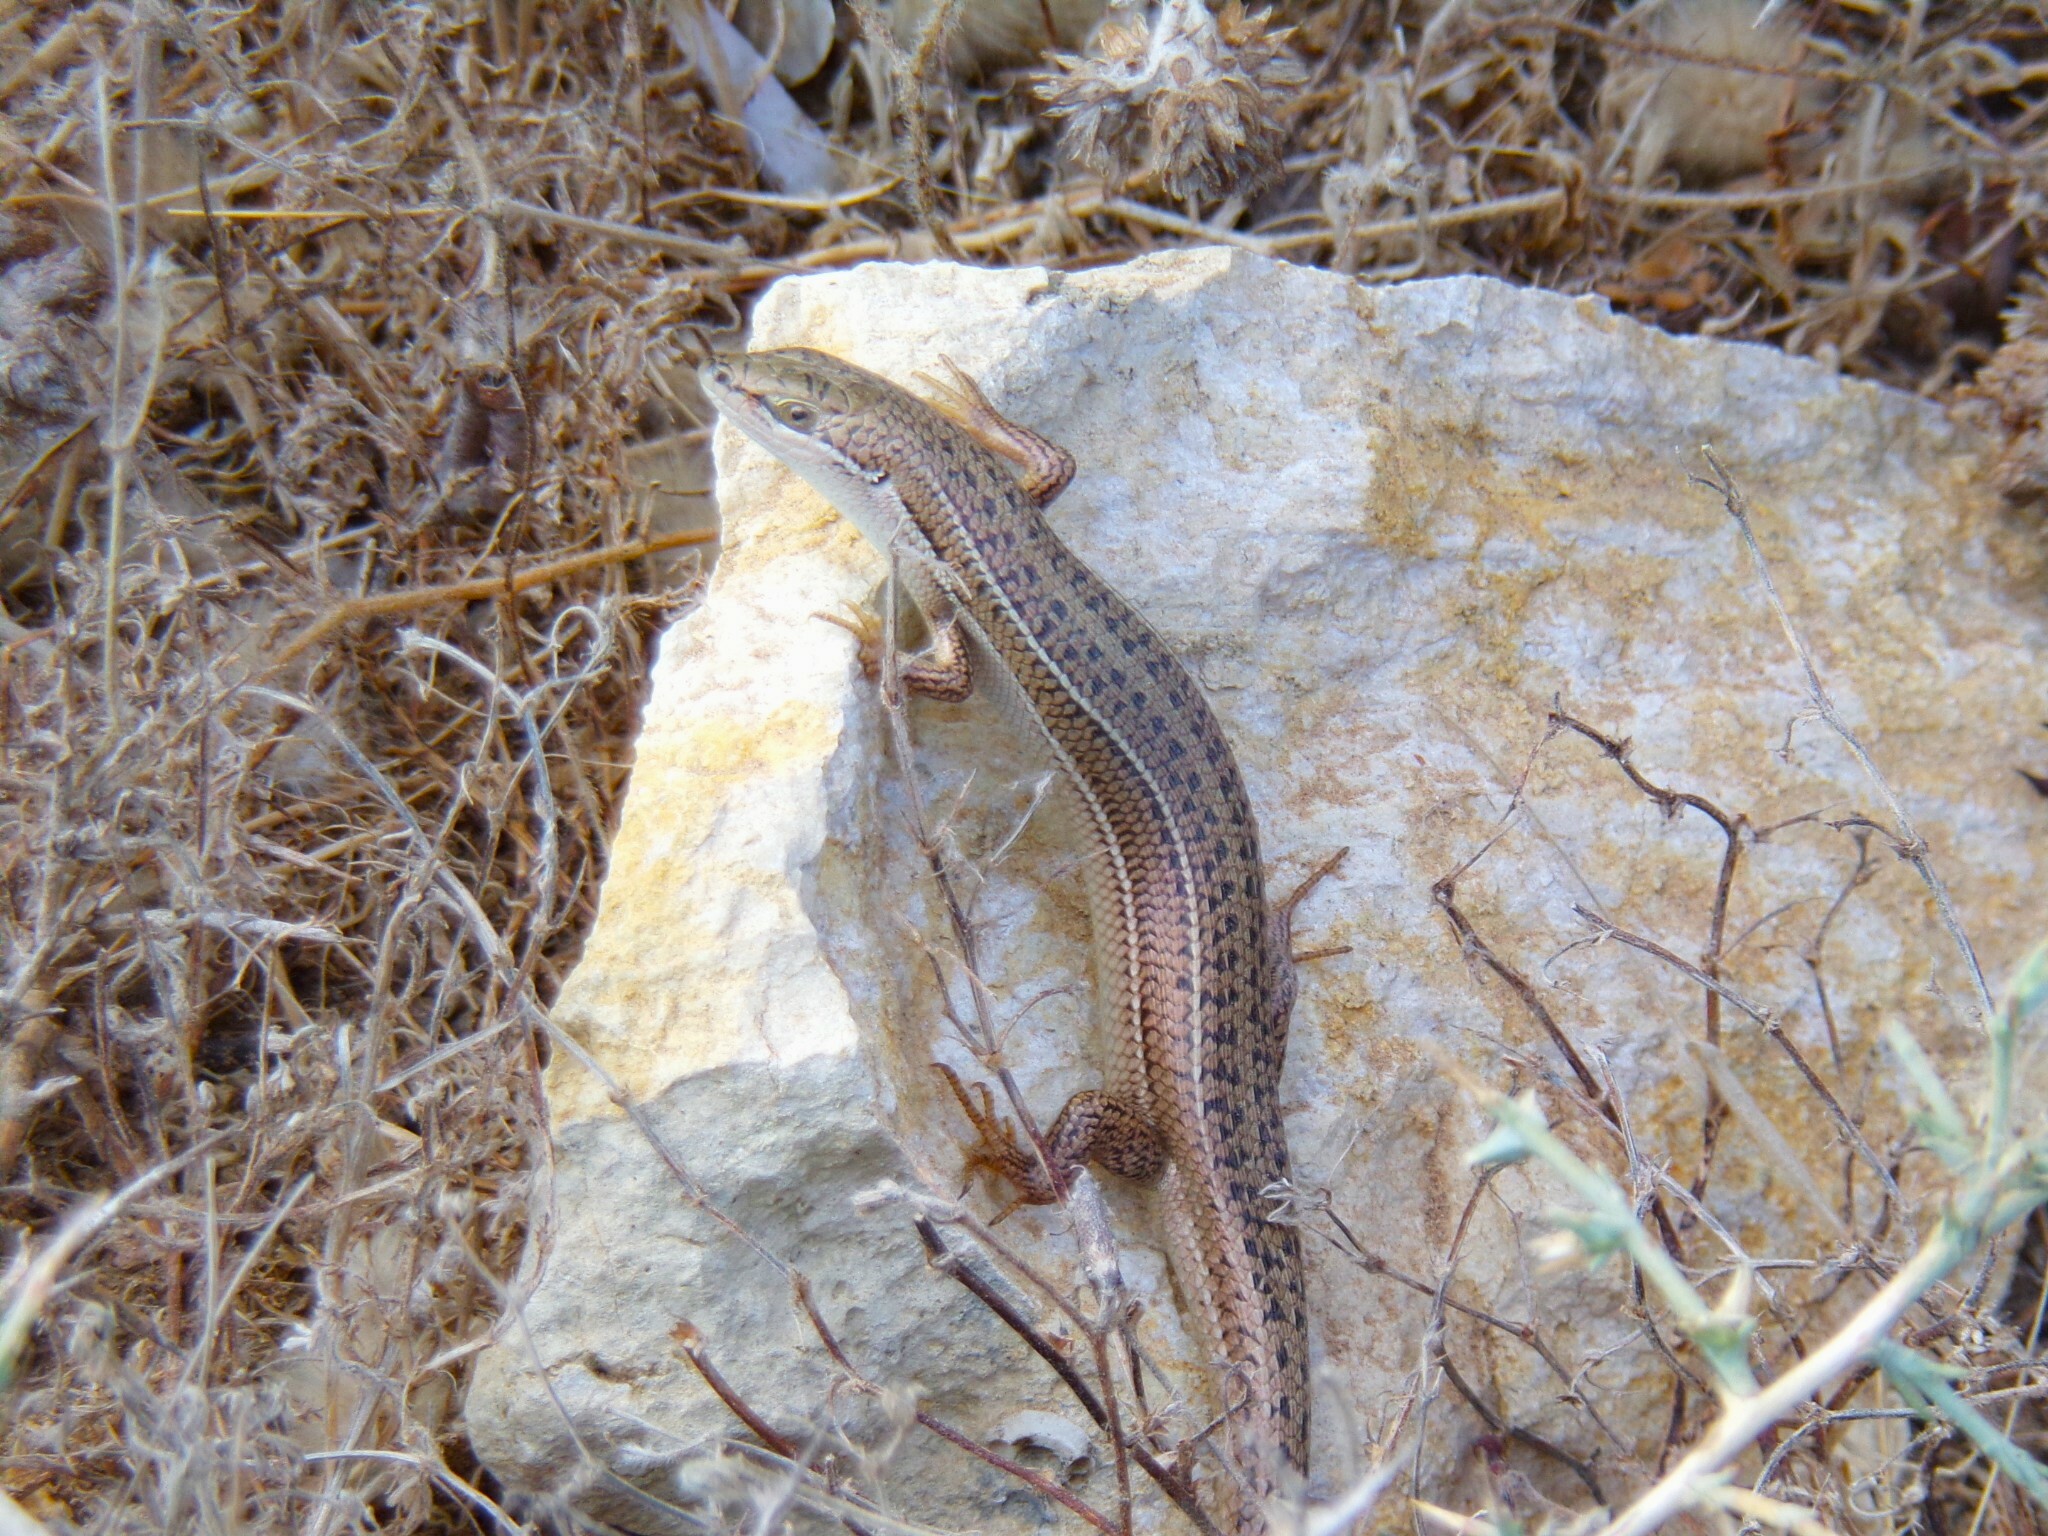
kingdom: Animalia
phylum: Chordata
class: Squamata
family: Scincidae
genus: Heremites
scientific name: Heremites vittatus
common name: Bridled mabuya
